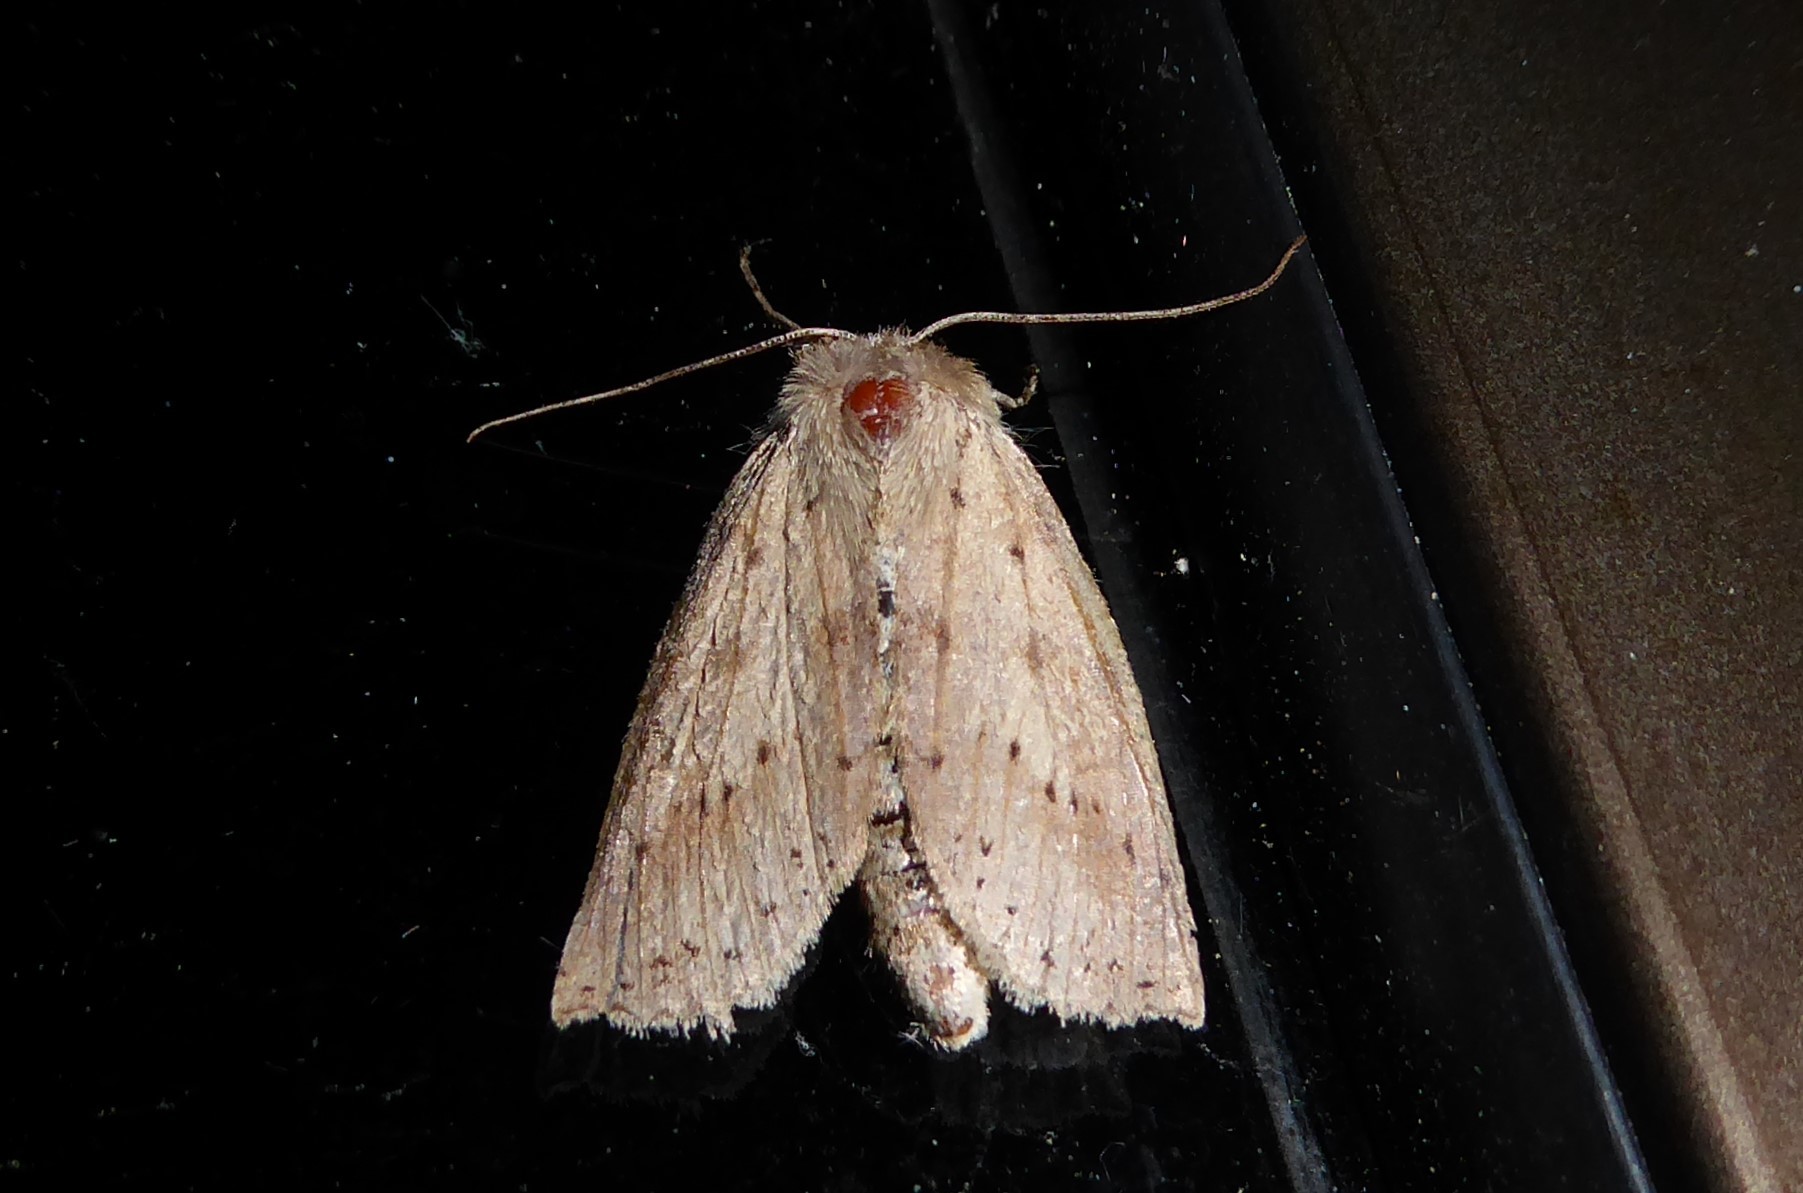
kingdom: Animalia
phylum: Arthropoda
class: Insecta
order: Lepidoptera
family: Geometridae
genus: Declana
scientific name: Declana leptomera
